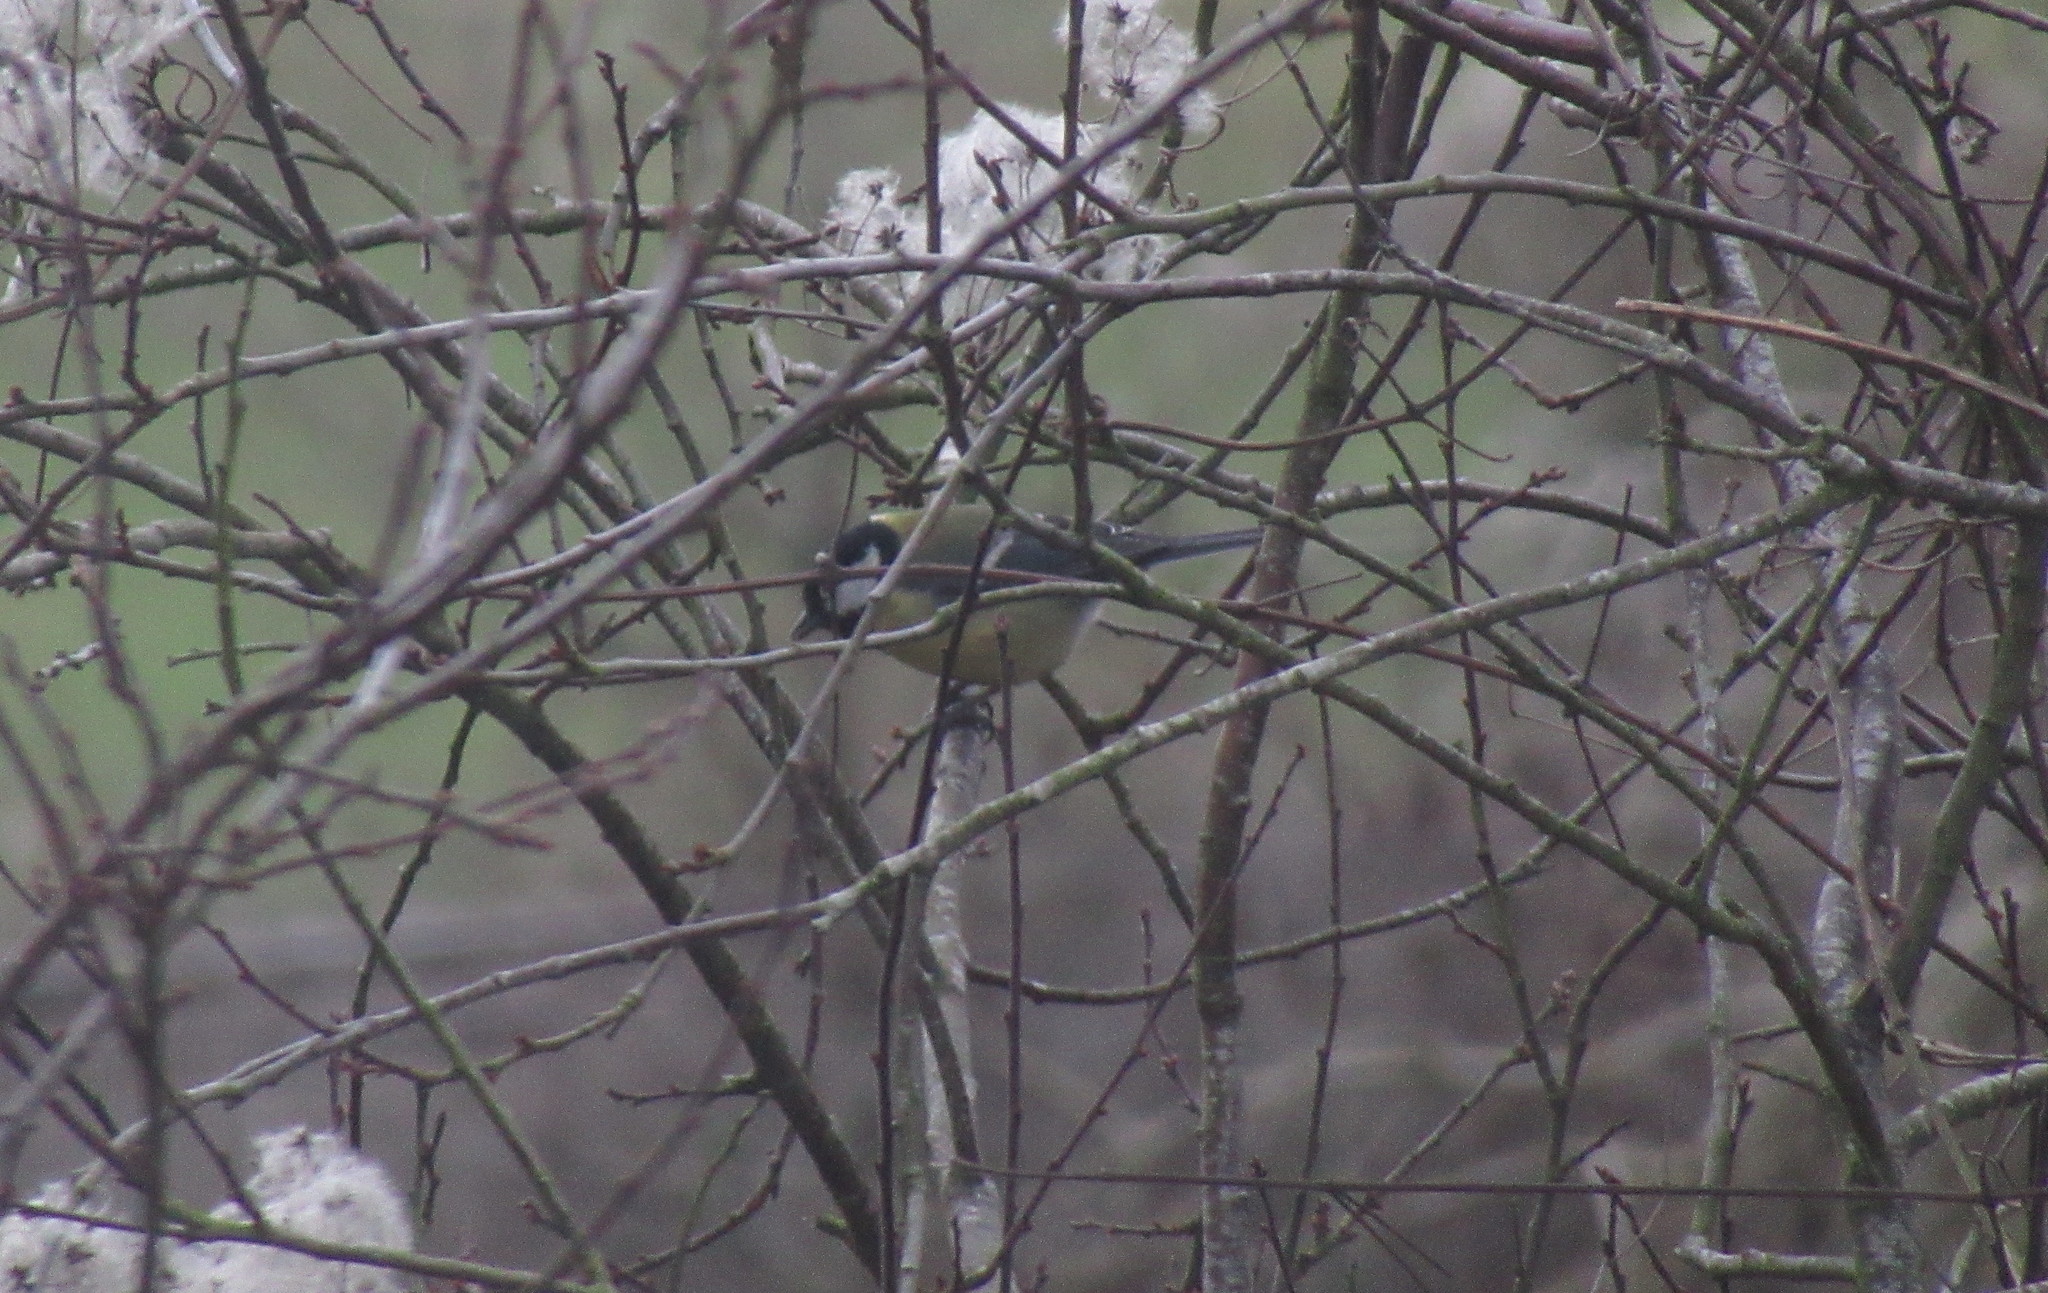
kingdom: Animalia
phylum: Chordata
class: Aves
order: Passeriformes
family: Paridae
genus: Parus
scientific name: Parus major
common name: Great tit
